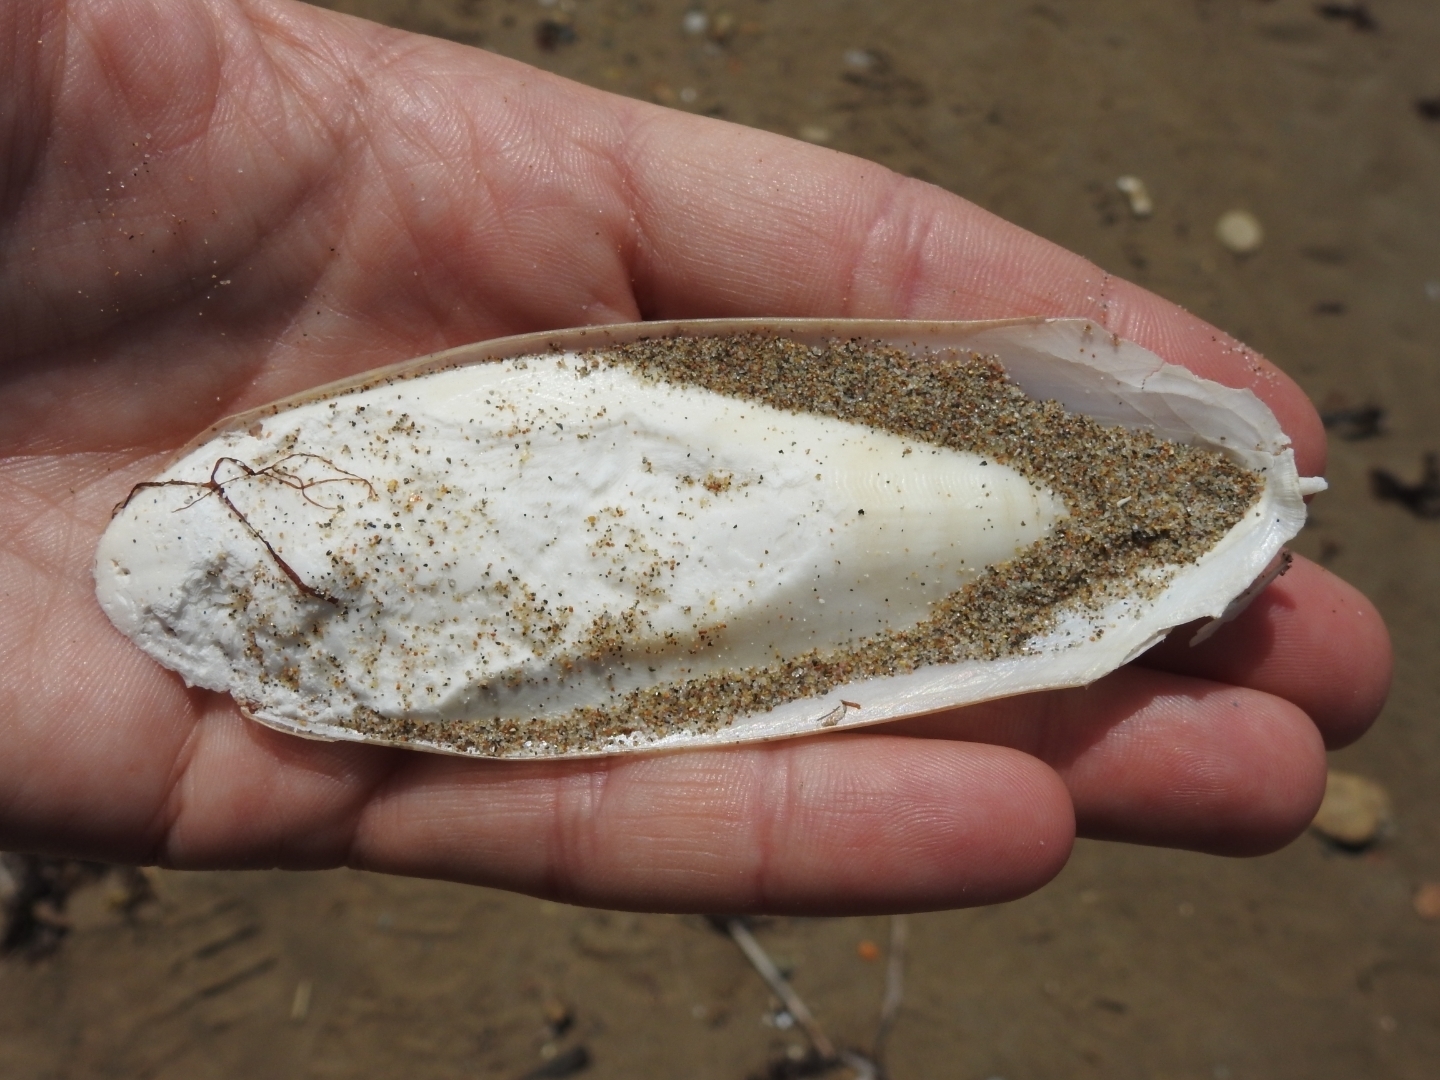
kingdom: Animalia
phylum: Mollusca
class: Cephalopoda
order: Sepiida
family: Sepiidae
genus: Sepia
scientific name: Sepia officinalis
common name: Common cuttlefish
